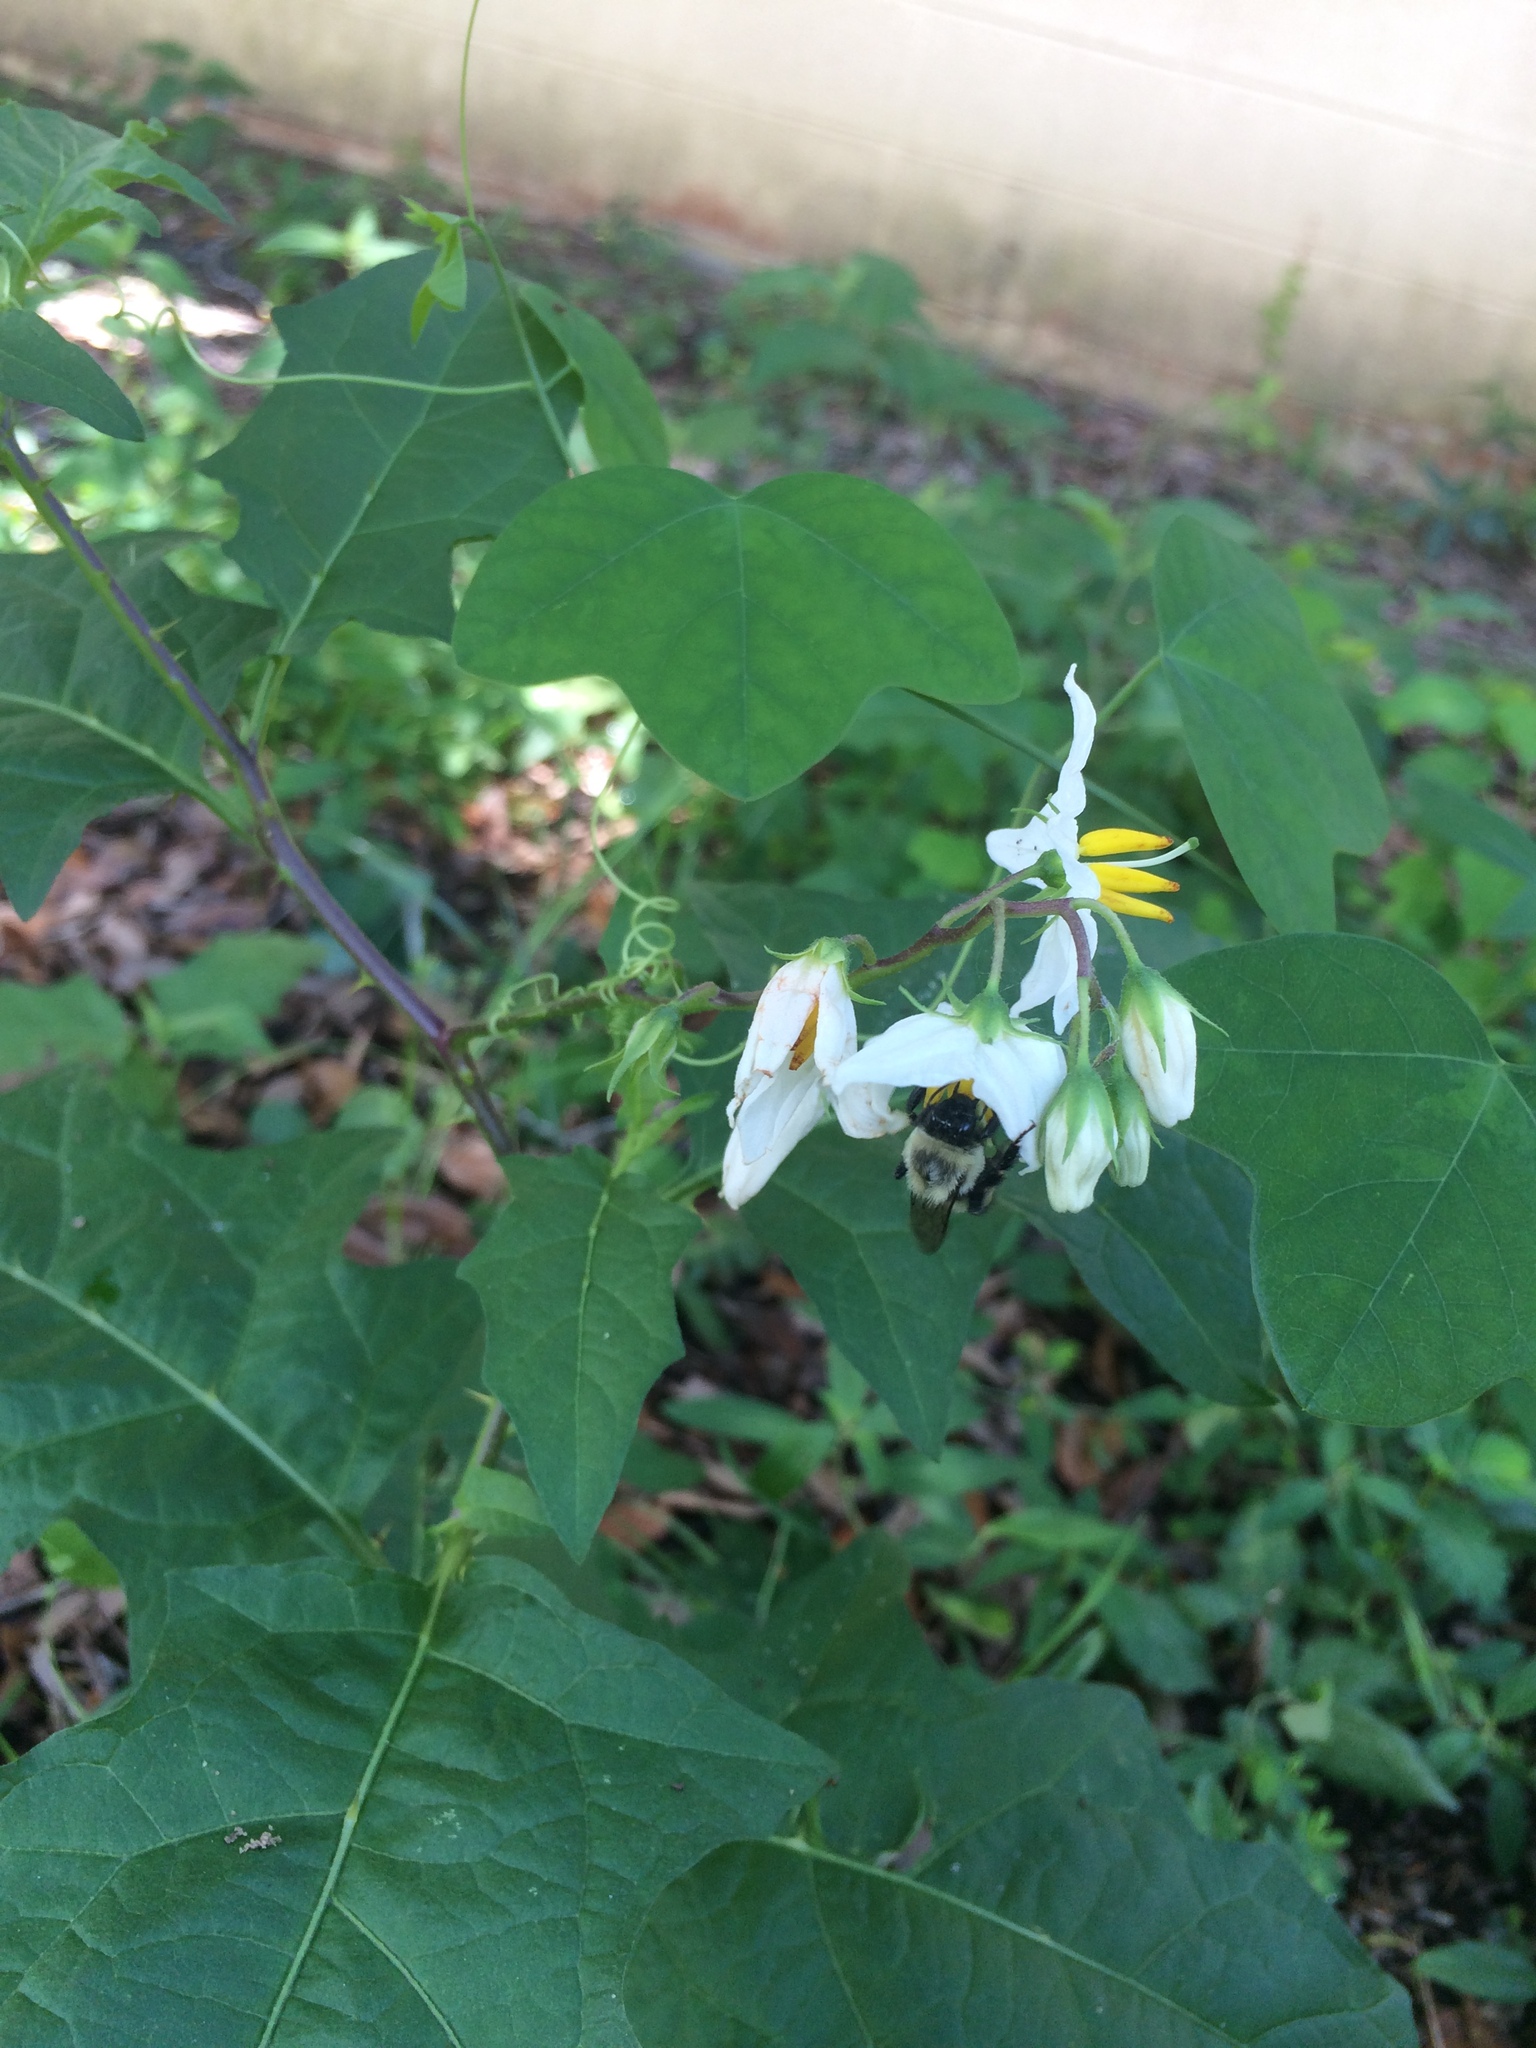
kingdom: Plantae
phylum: Tracheophyta
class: Magnoliopsida
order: Solanales
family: Solanaceae
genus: Solanum
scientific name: Solanum carolinense
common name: Horse-nettle
